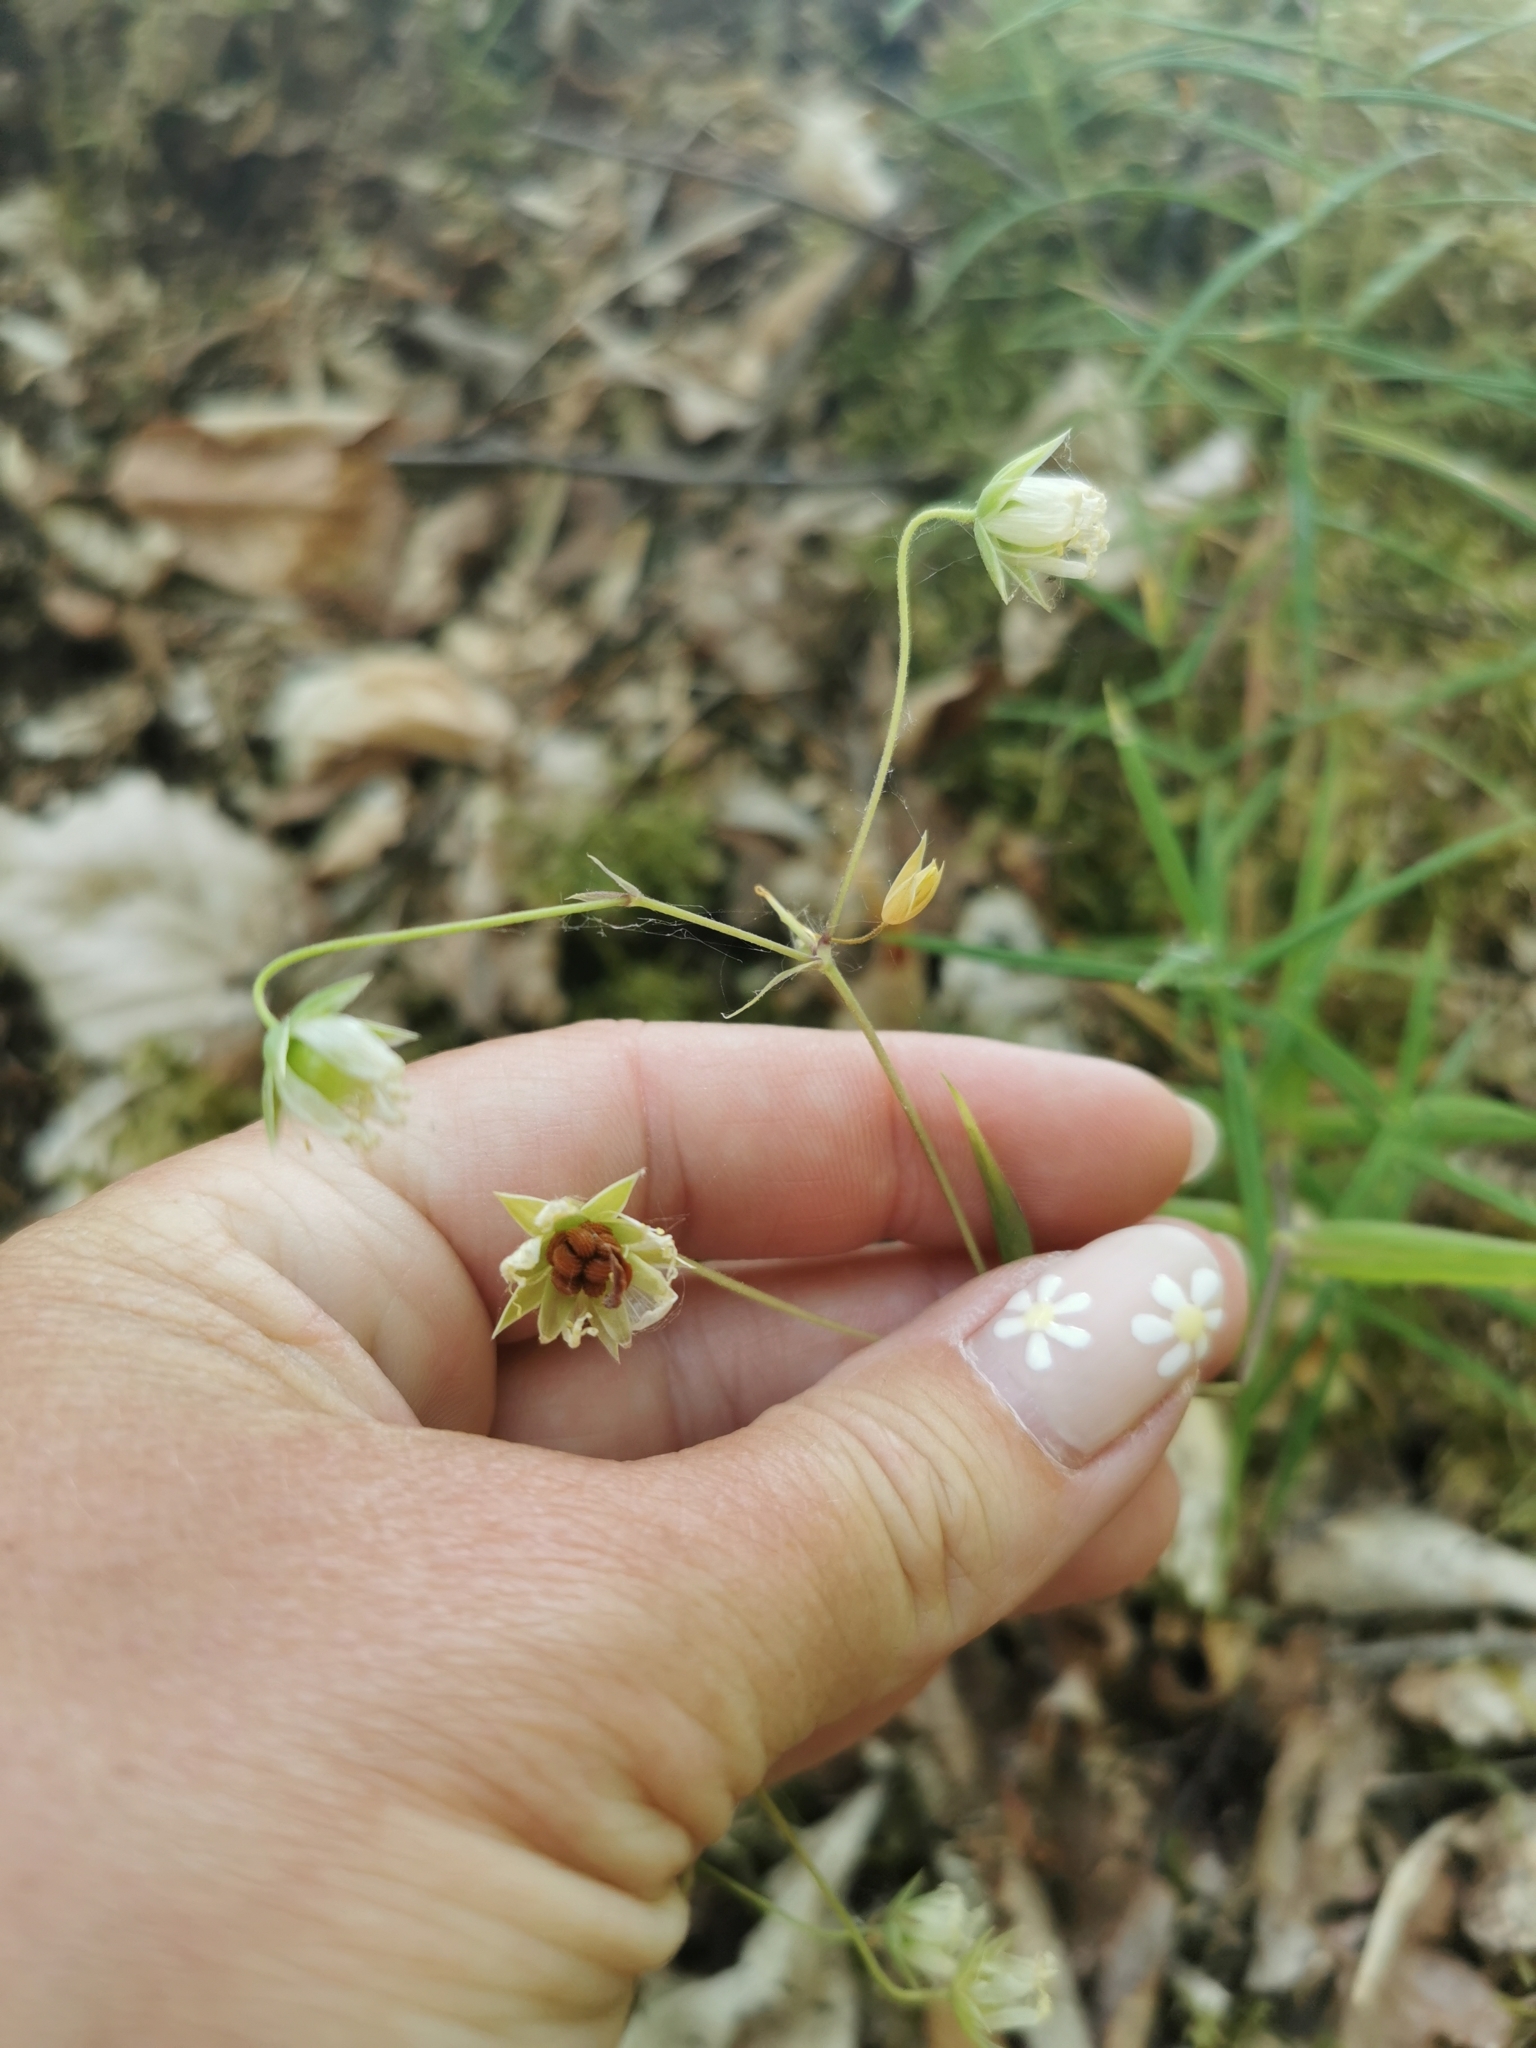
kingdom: Plantae
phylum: Tracheophyta
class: Magnoliopsida
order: Caryophyllales
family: Caryophyllaceae
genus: Rabelera
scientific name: Rabelera holostea
